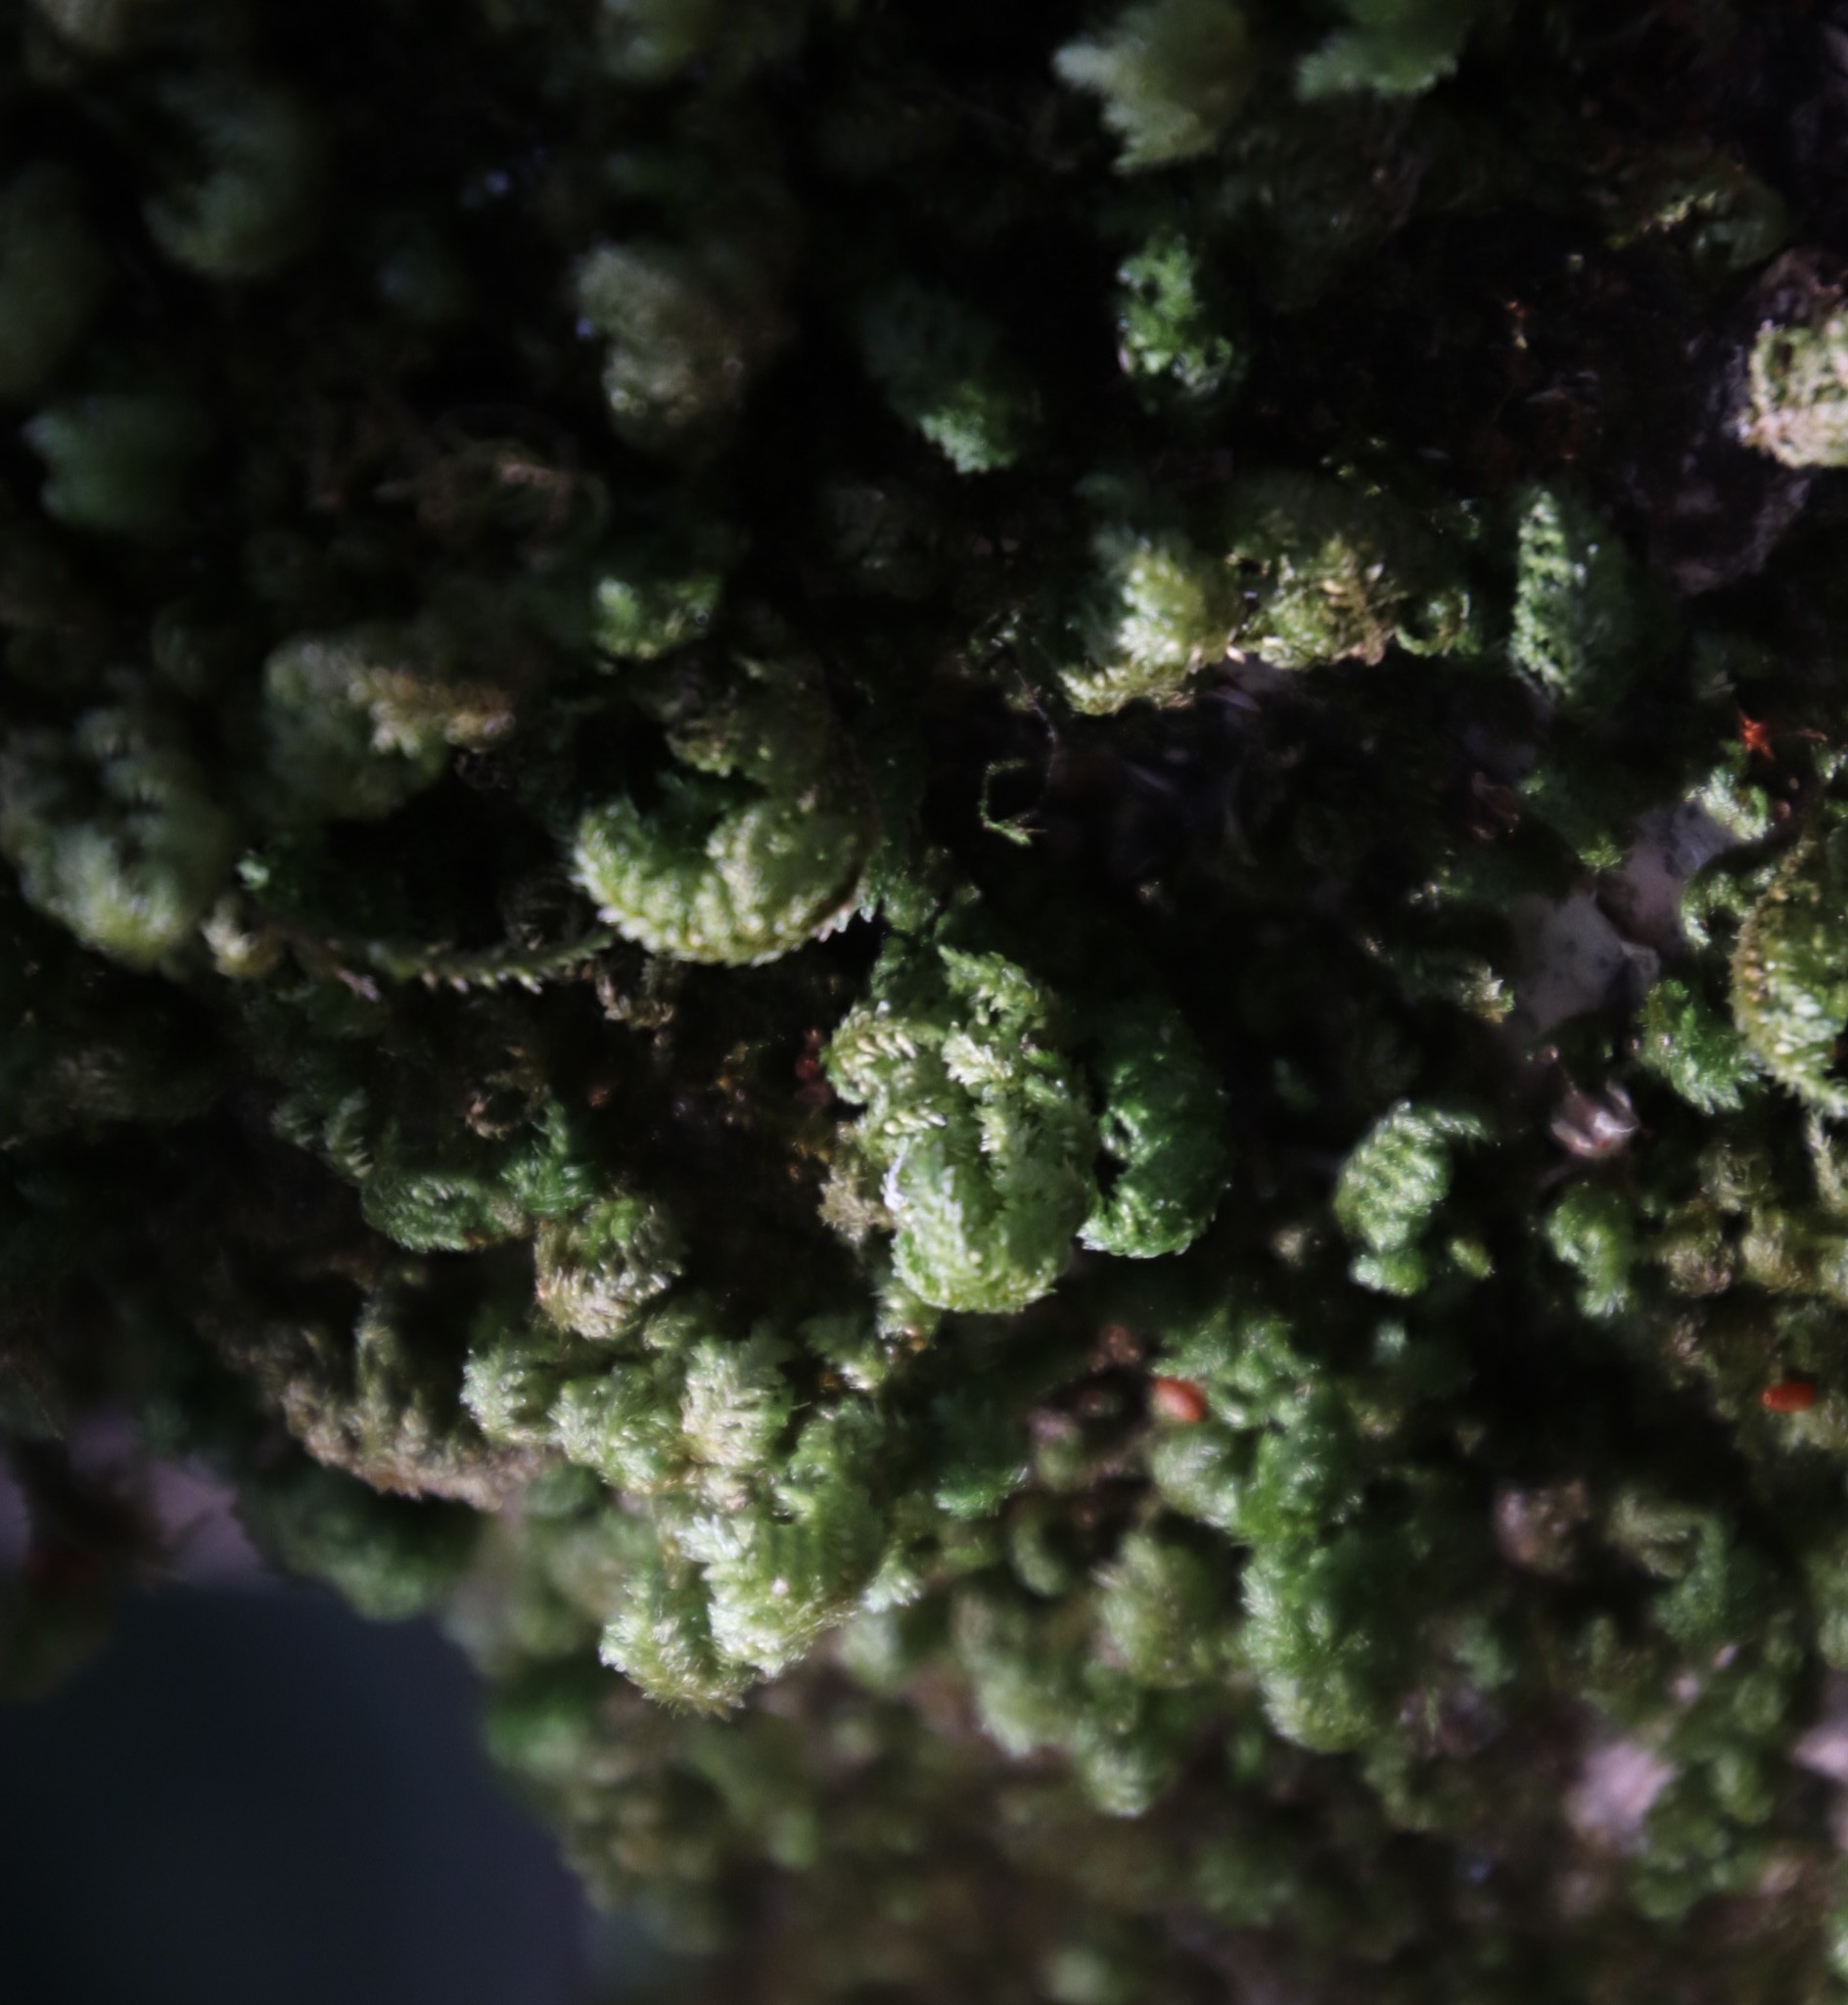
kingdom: Plantae
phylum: Bryophyta
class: Bryopsida
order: Hypnales
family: Neckeraceae
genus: Leptodon
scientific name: Leptodon smithii
